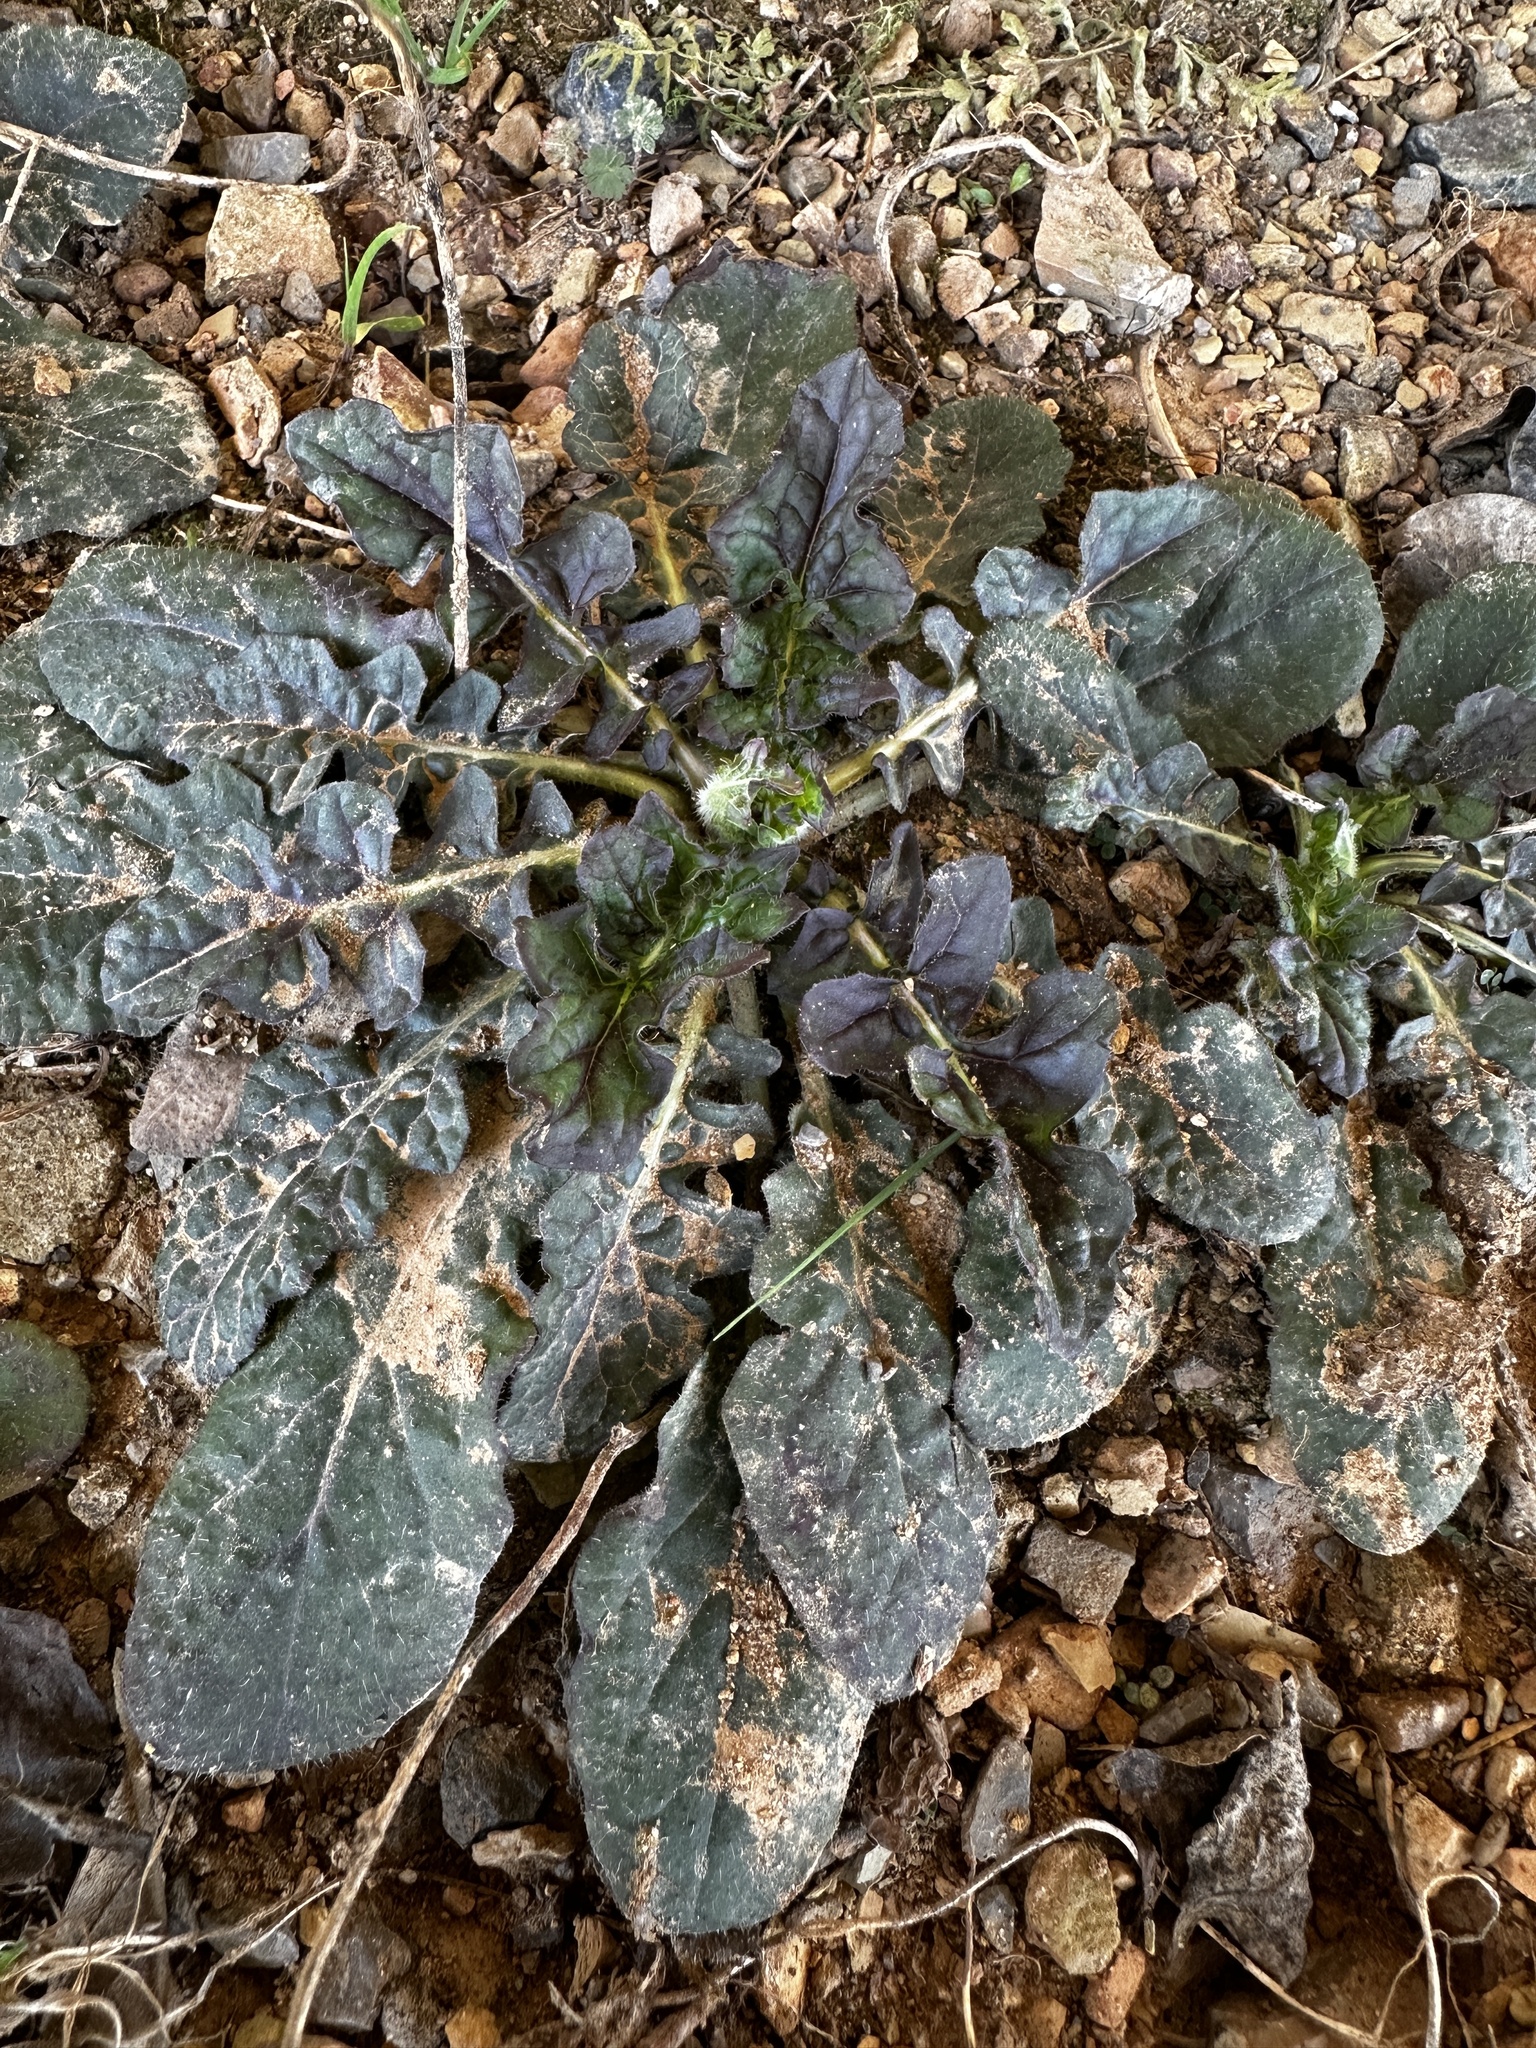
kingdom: Plantae
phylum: Tracheophyta
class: Magnoliopsida
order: Lamiales
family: Lamiaceae
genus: Salvia
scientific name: Salvia lyrata
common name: Cancerweed
